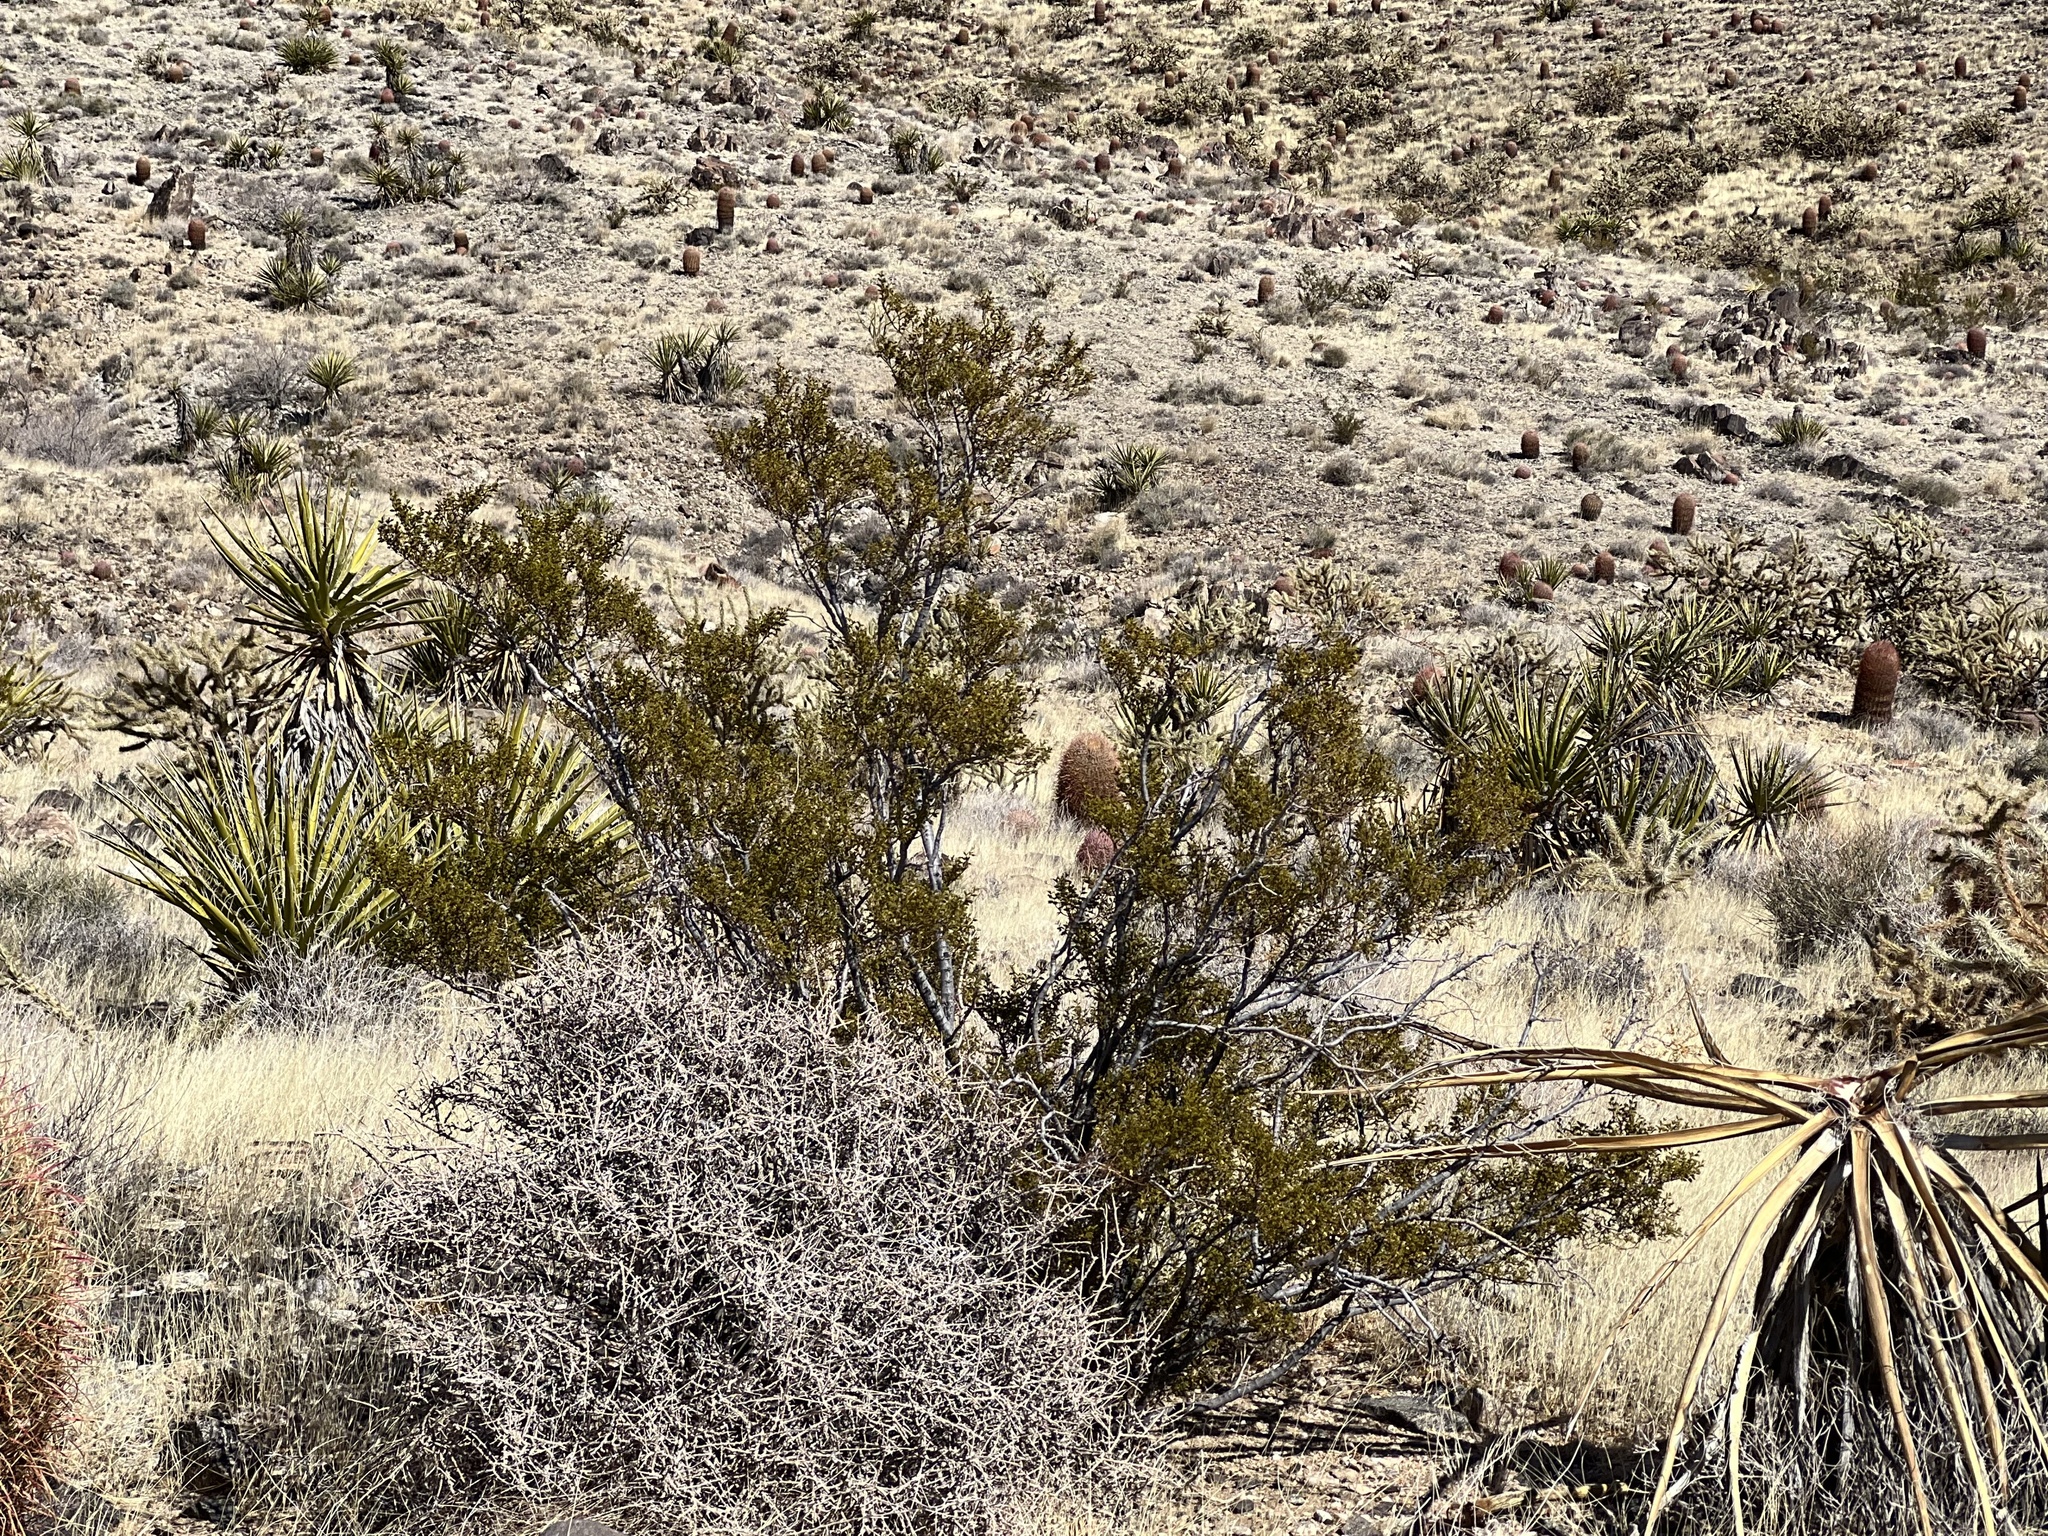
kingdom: Plantae
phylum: Tracheophyta
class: Magnoliopsida
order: Zygophyllales
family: Zygophyllaceae
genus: Larrea
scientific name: Larrea tridentata
